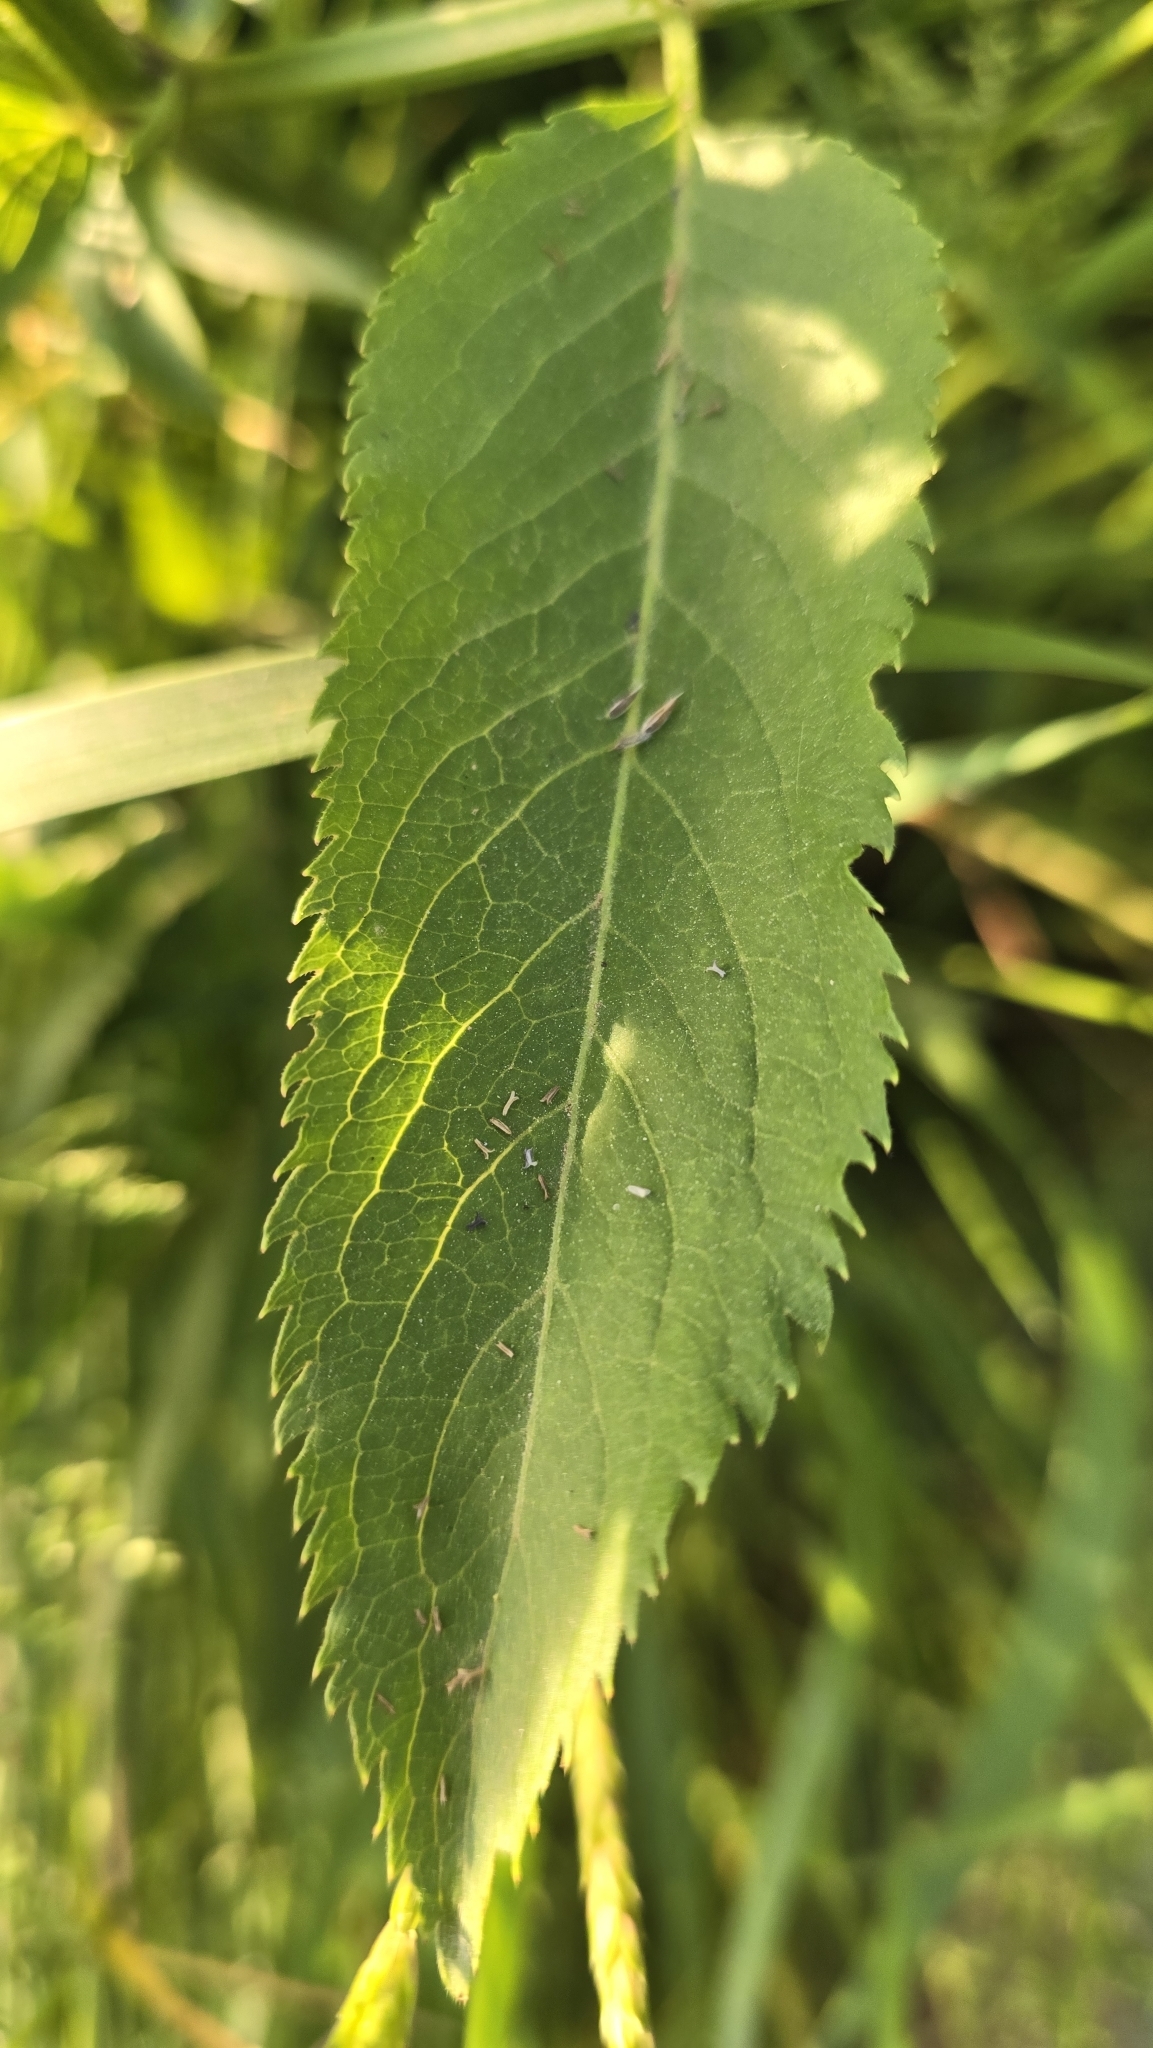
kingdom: Plantae
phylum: Tracheophyta
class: Magnoliopsida
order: Dipsacales
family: Viburnaceae
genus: Sambucus
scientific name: Sambucus ebulus
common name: Dwarf elder
